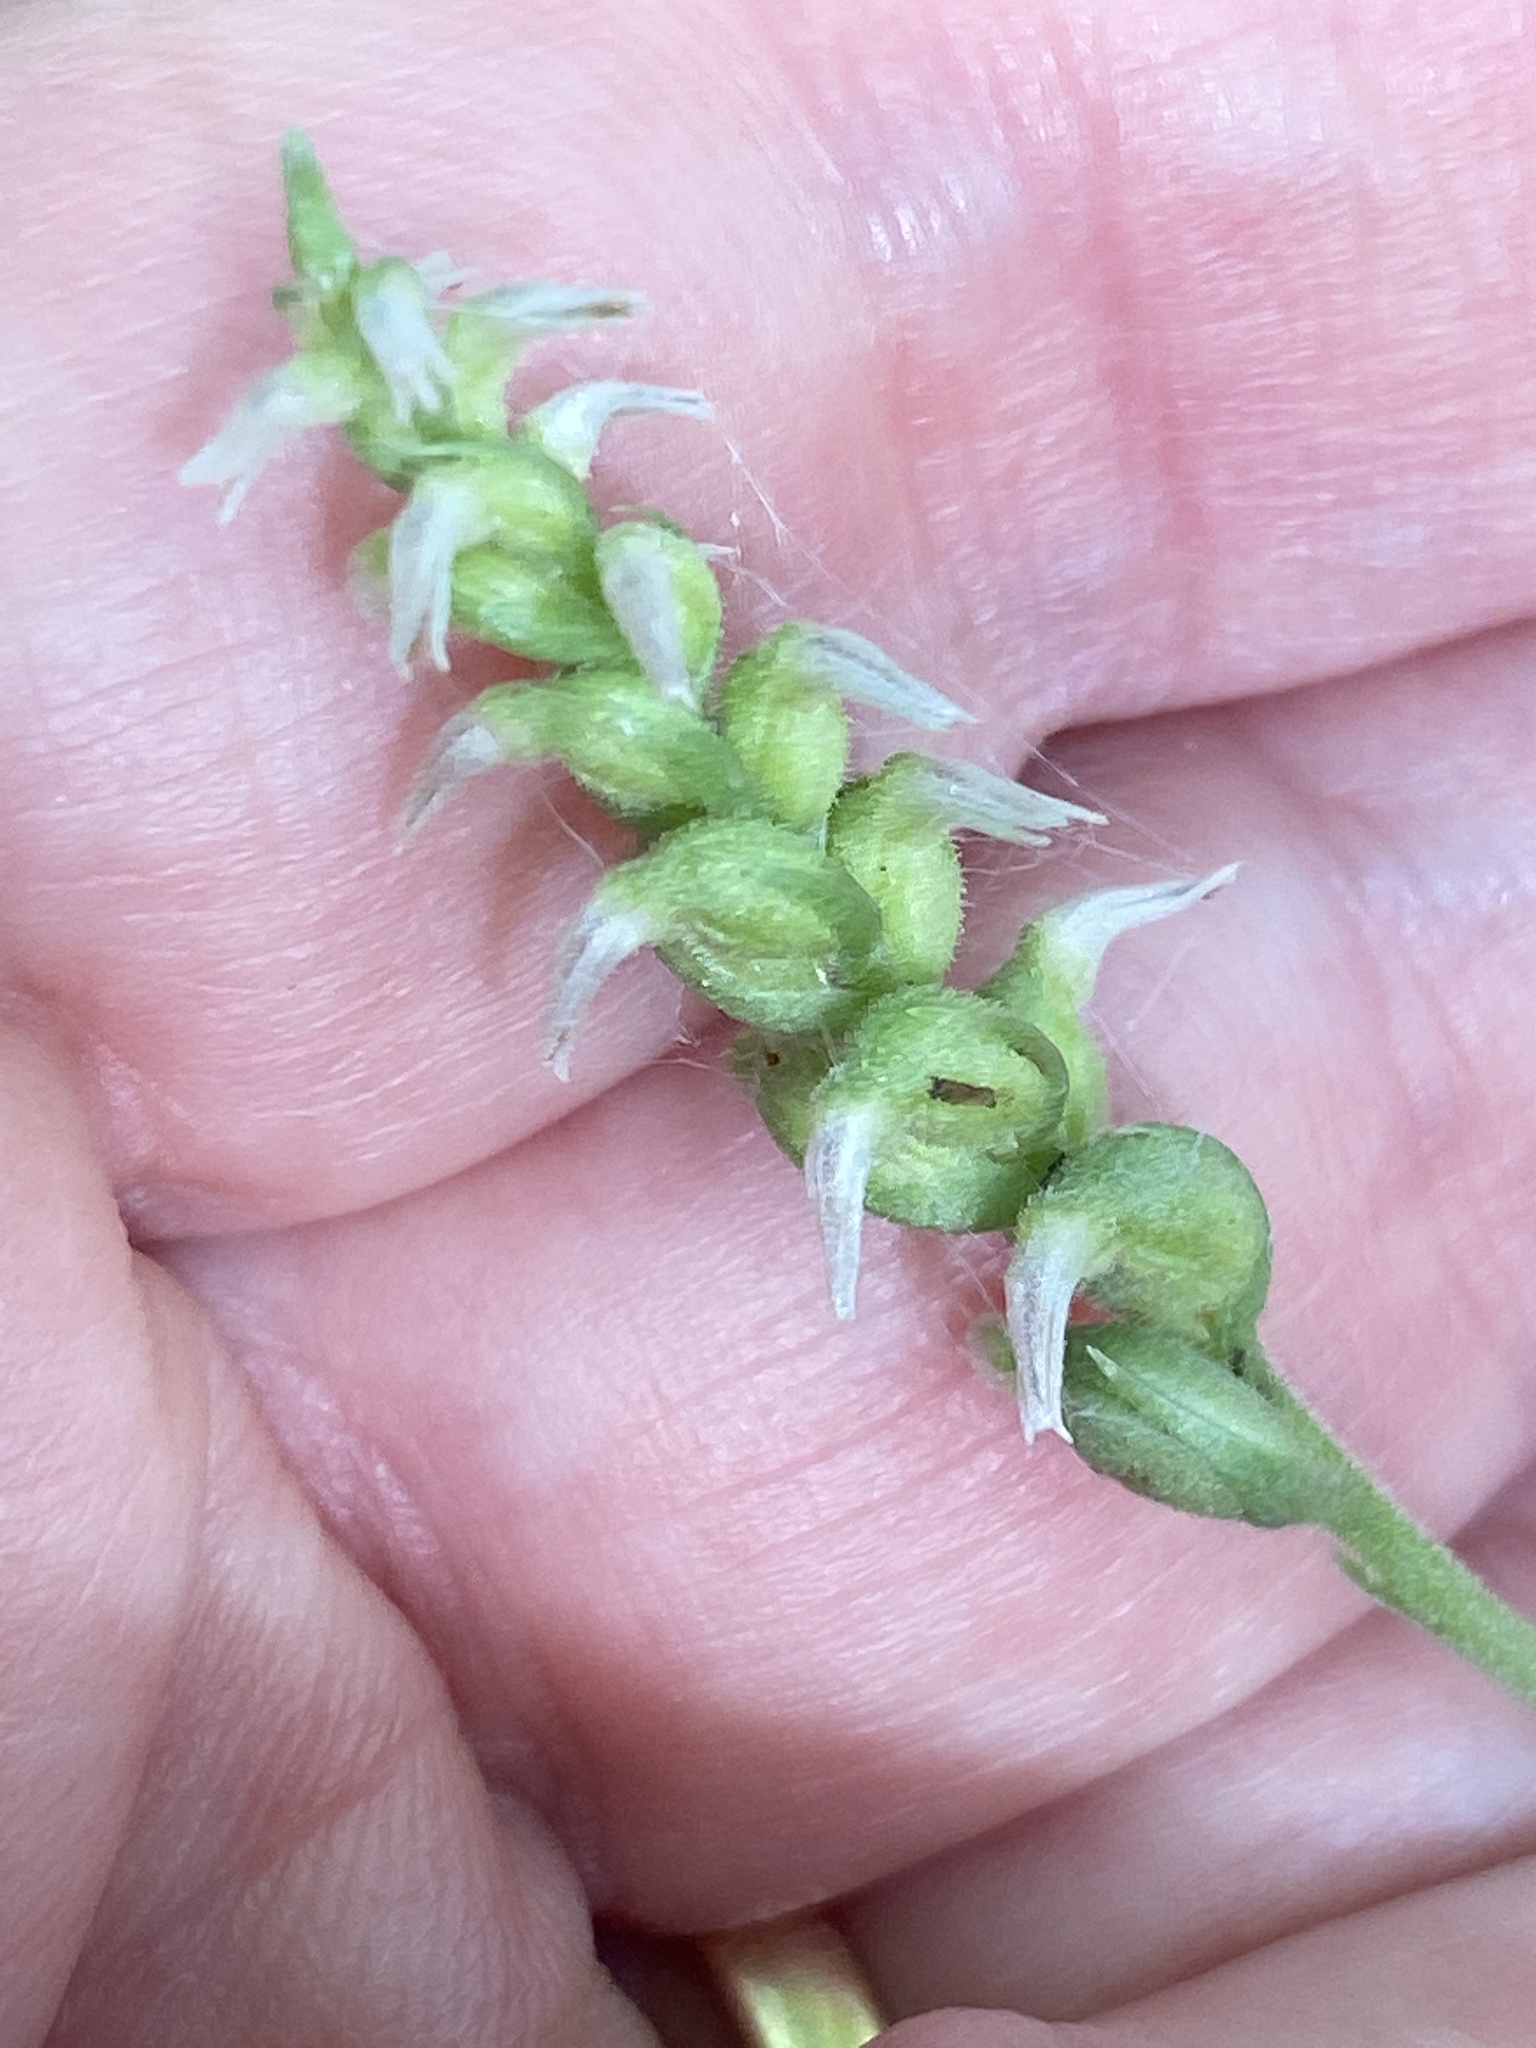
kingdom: Plantae
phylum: Tracheophyta
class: Liliopsida
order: Asparagales
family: Orchidaceae
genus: Spiranthes
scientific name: Spiranthes ovalis
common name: October ladies'-tresses
